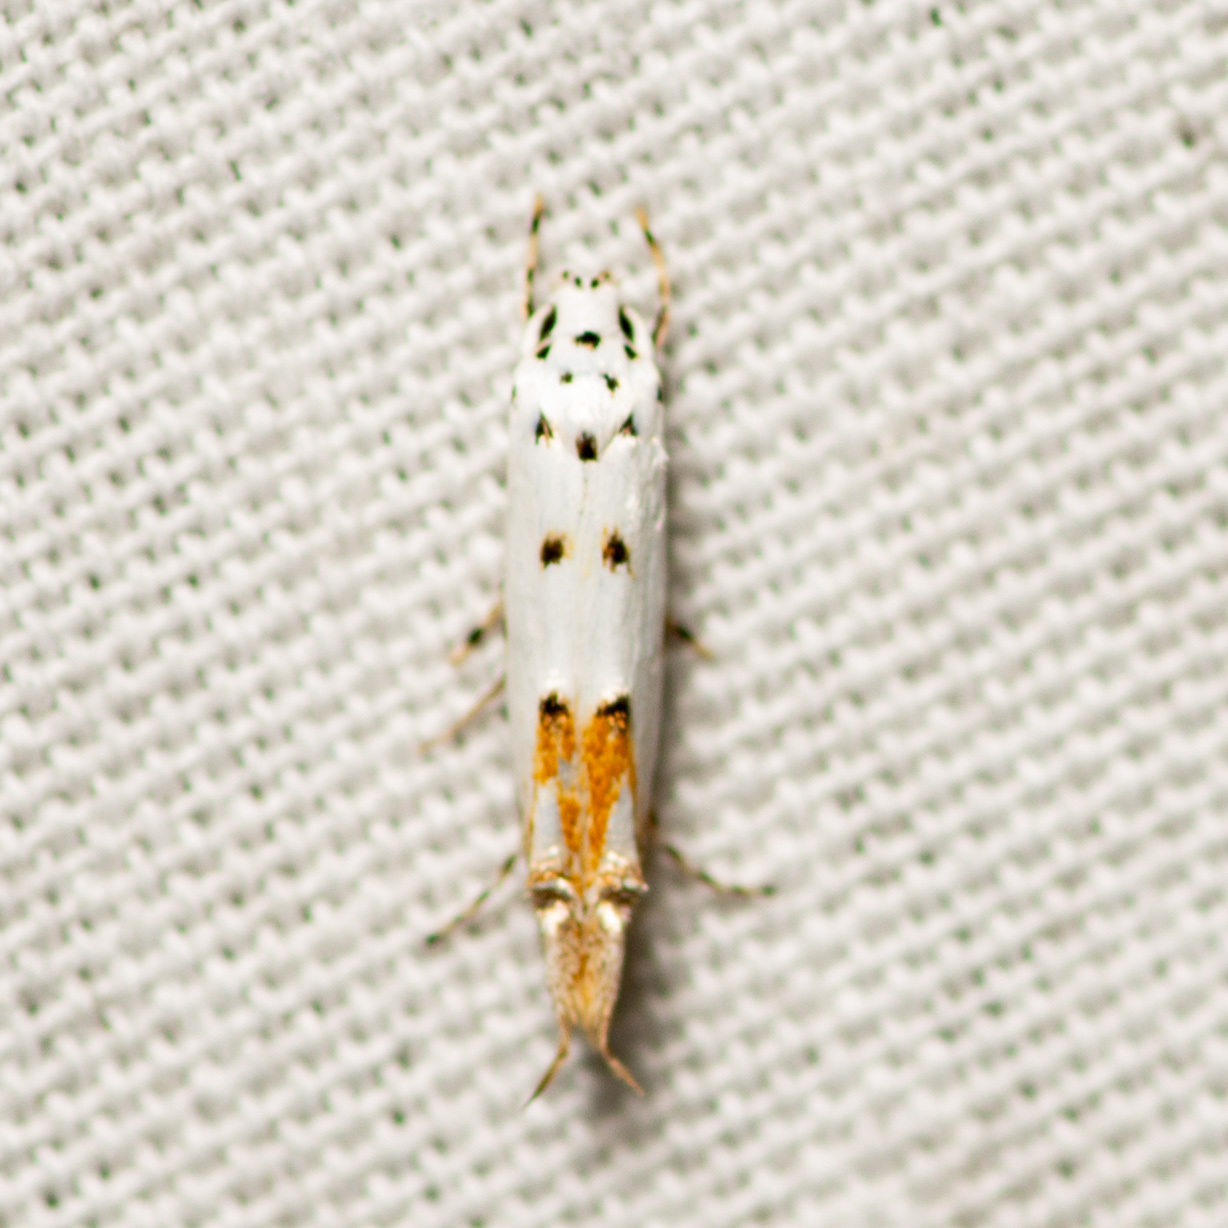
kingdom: Animalia
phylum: Arthropoda
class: Insecta
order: Lepidoptera
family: Momphidae
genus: Mompha
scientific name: Mompha eloisella
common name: Red-streaked mompha moth
